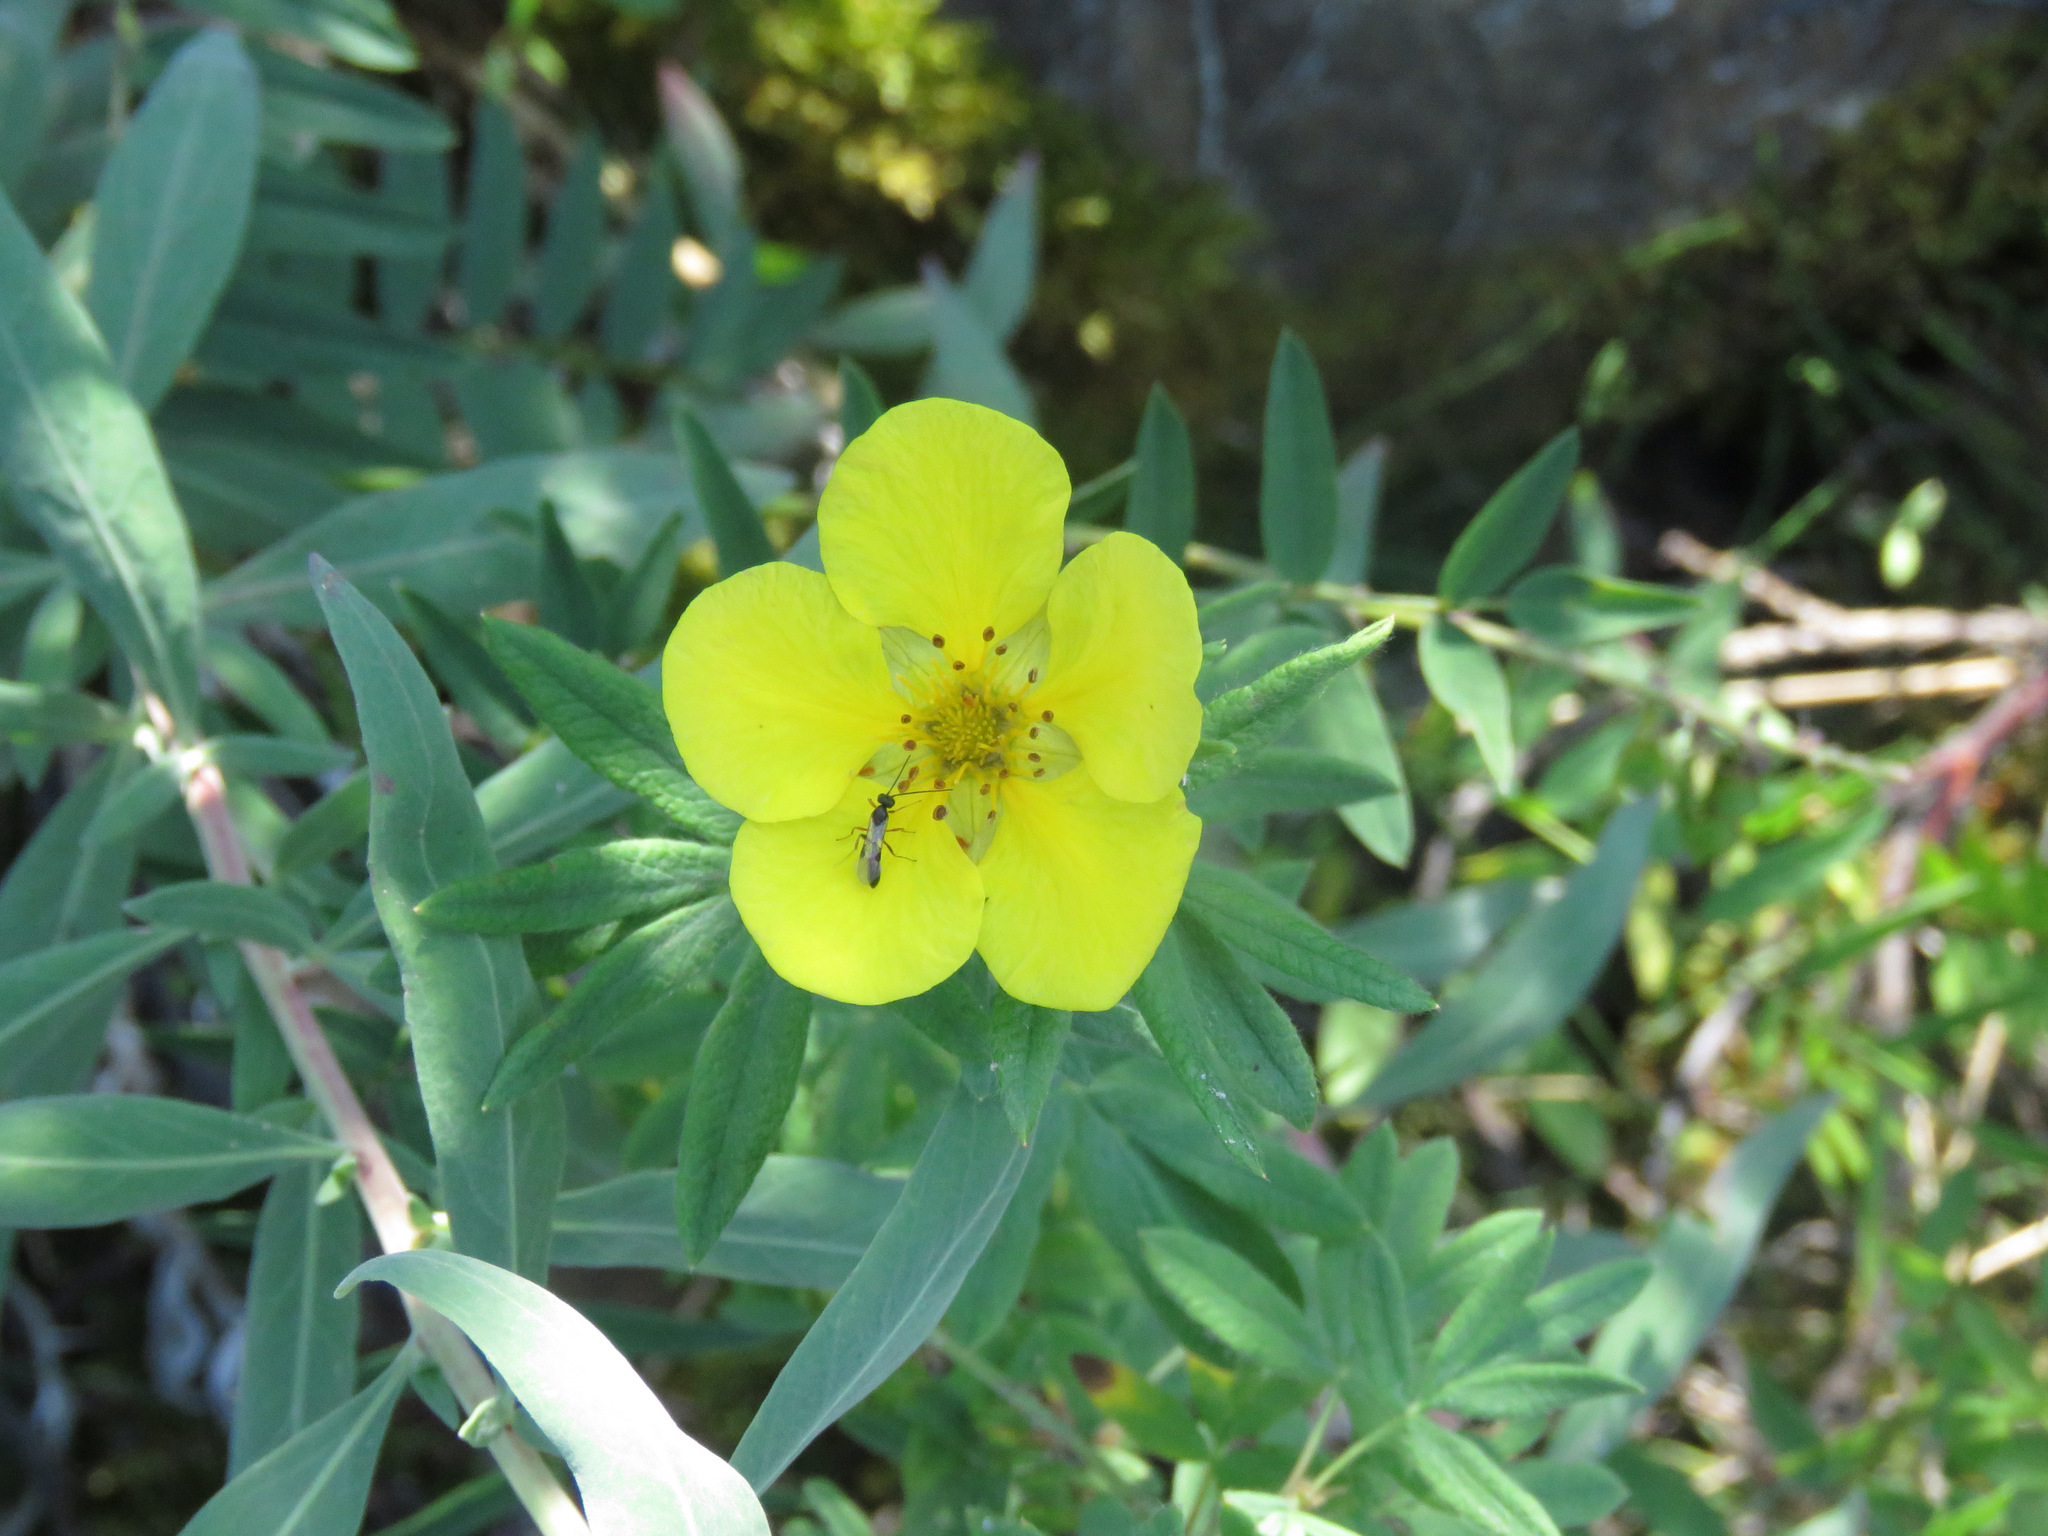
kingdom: Plantae
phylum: Tracheophyta
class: Magnoliopsida
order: Rosales
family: Rosaceae
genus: Dasiphora
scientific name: Dasiphora fruticosa
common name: Shrubby cinquefoil
